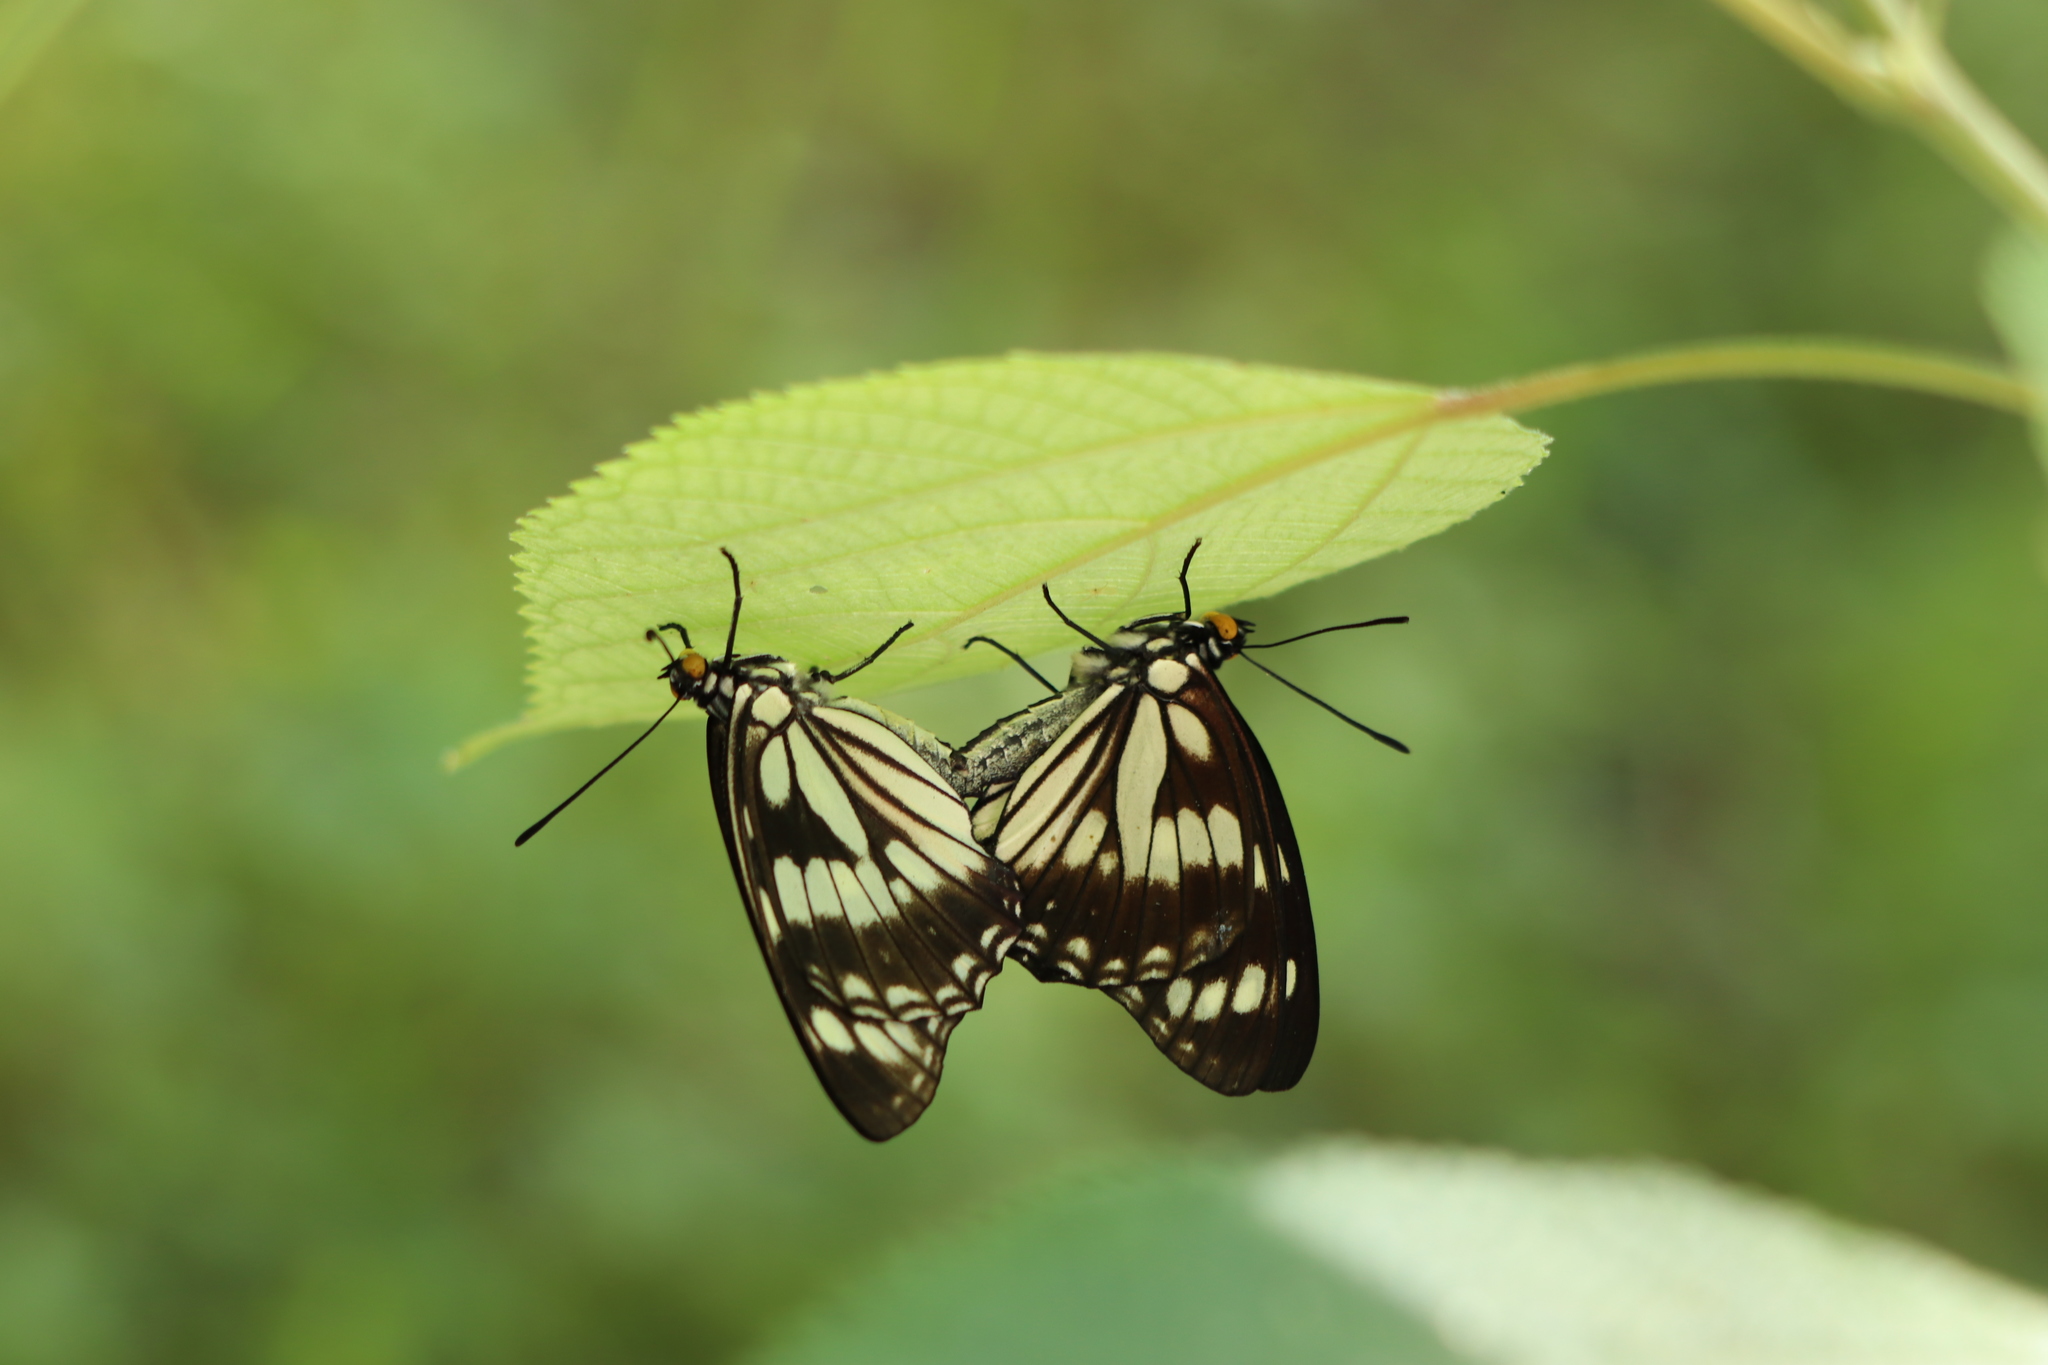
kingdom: Animalia
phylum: Arthropoda
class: Insecta
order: Lepidoptera
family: Nymphalidae
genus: Hestina
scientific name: Hestina persimilis
